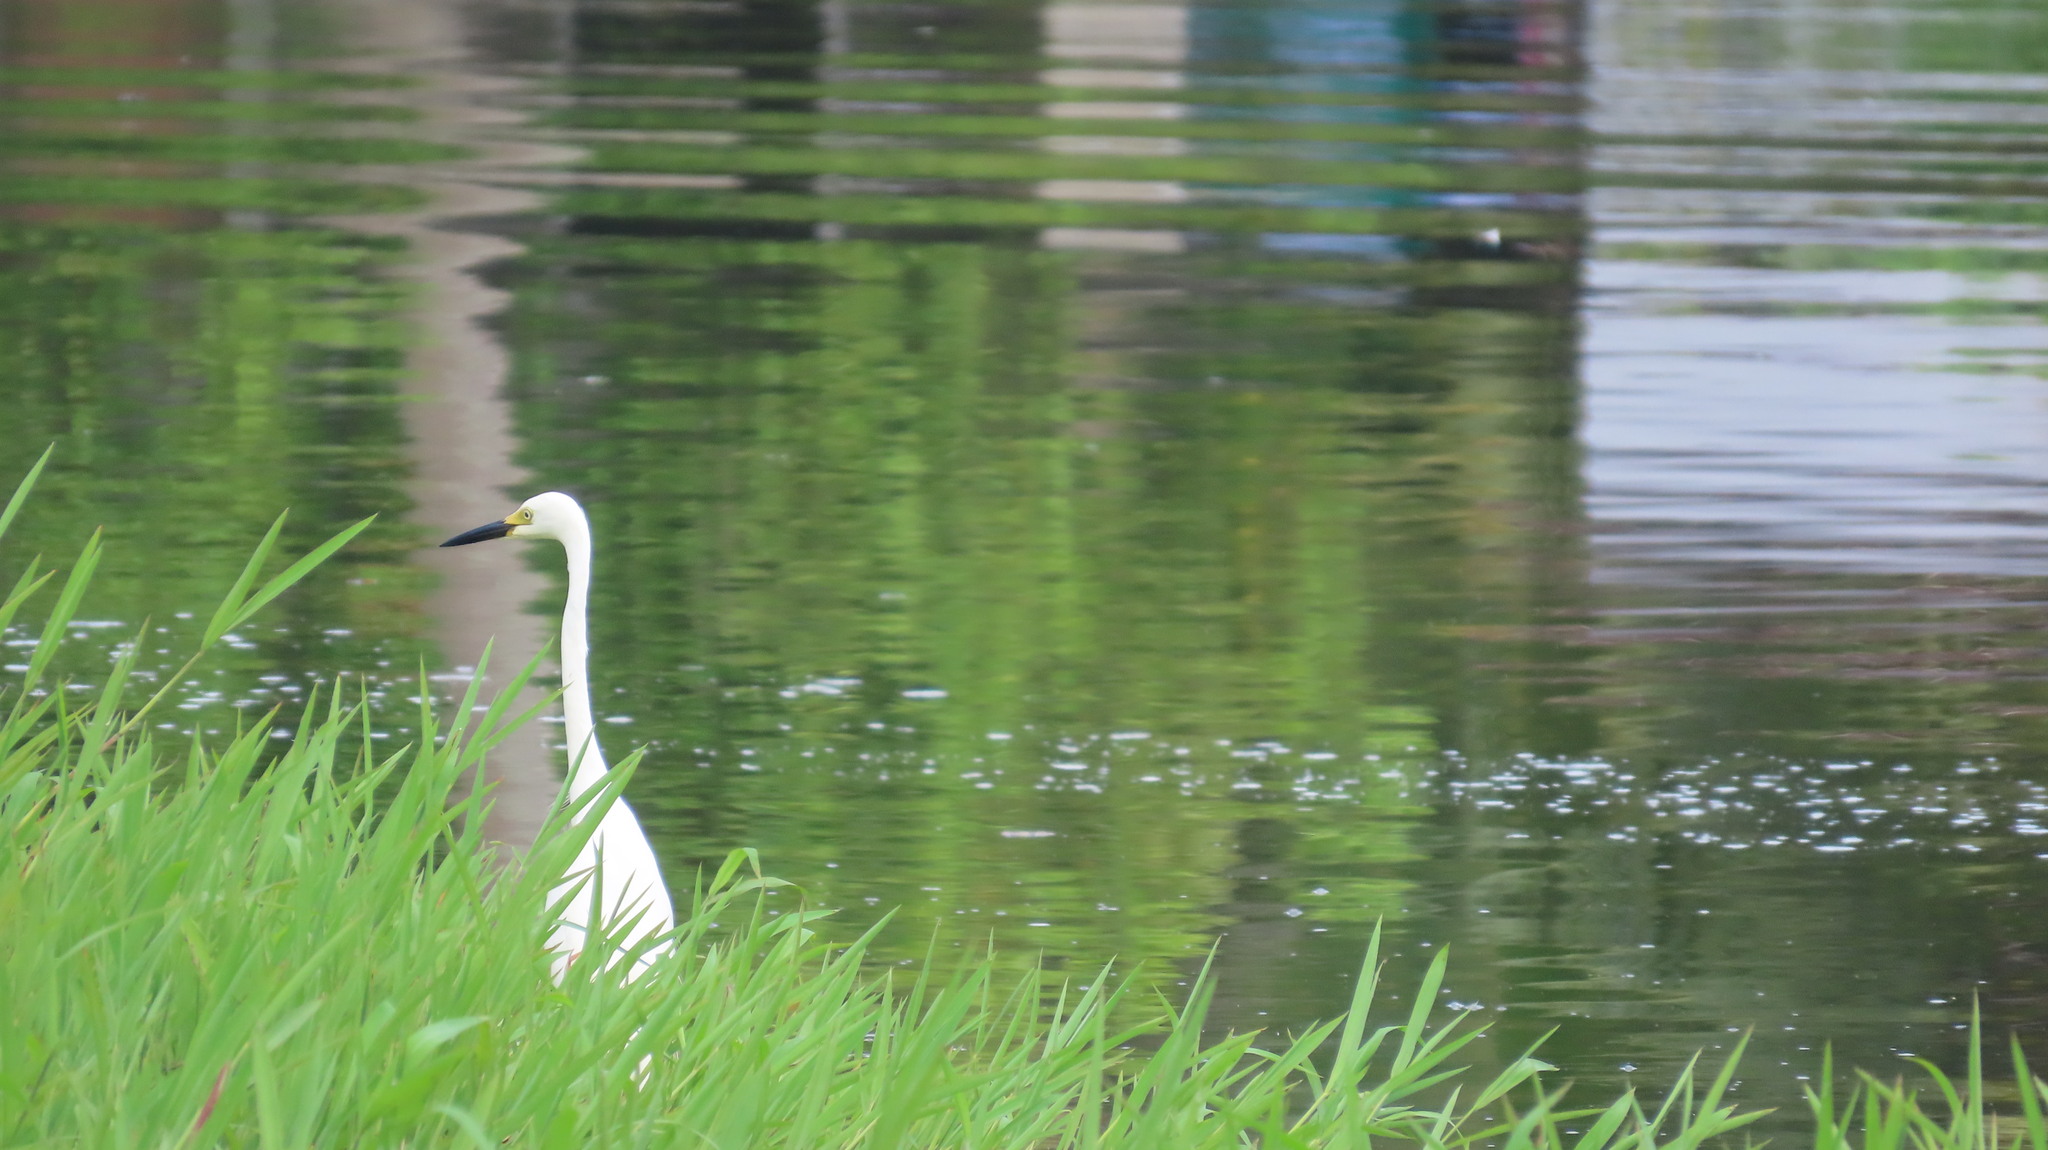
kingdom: Animalia
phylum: Chordata
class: Aves
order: Pelecaniformes
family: Ardeidae
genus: Egretta
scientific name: Egretta intermedia
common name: Intermediate egret
